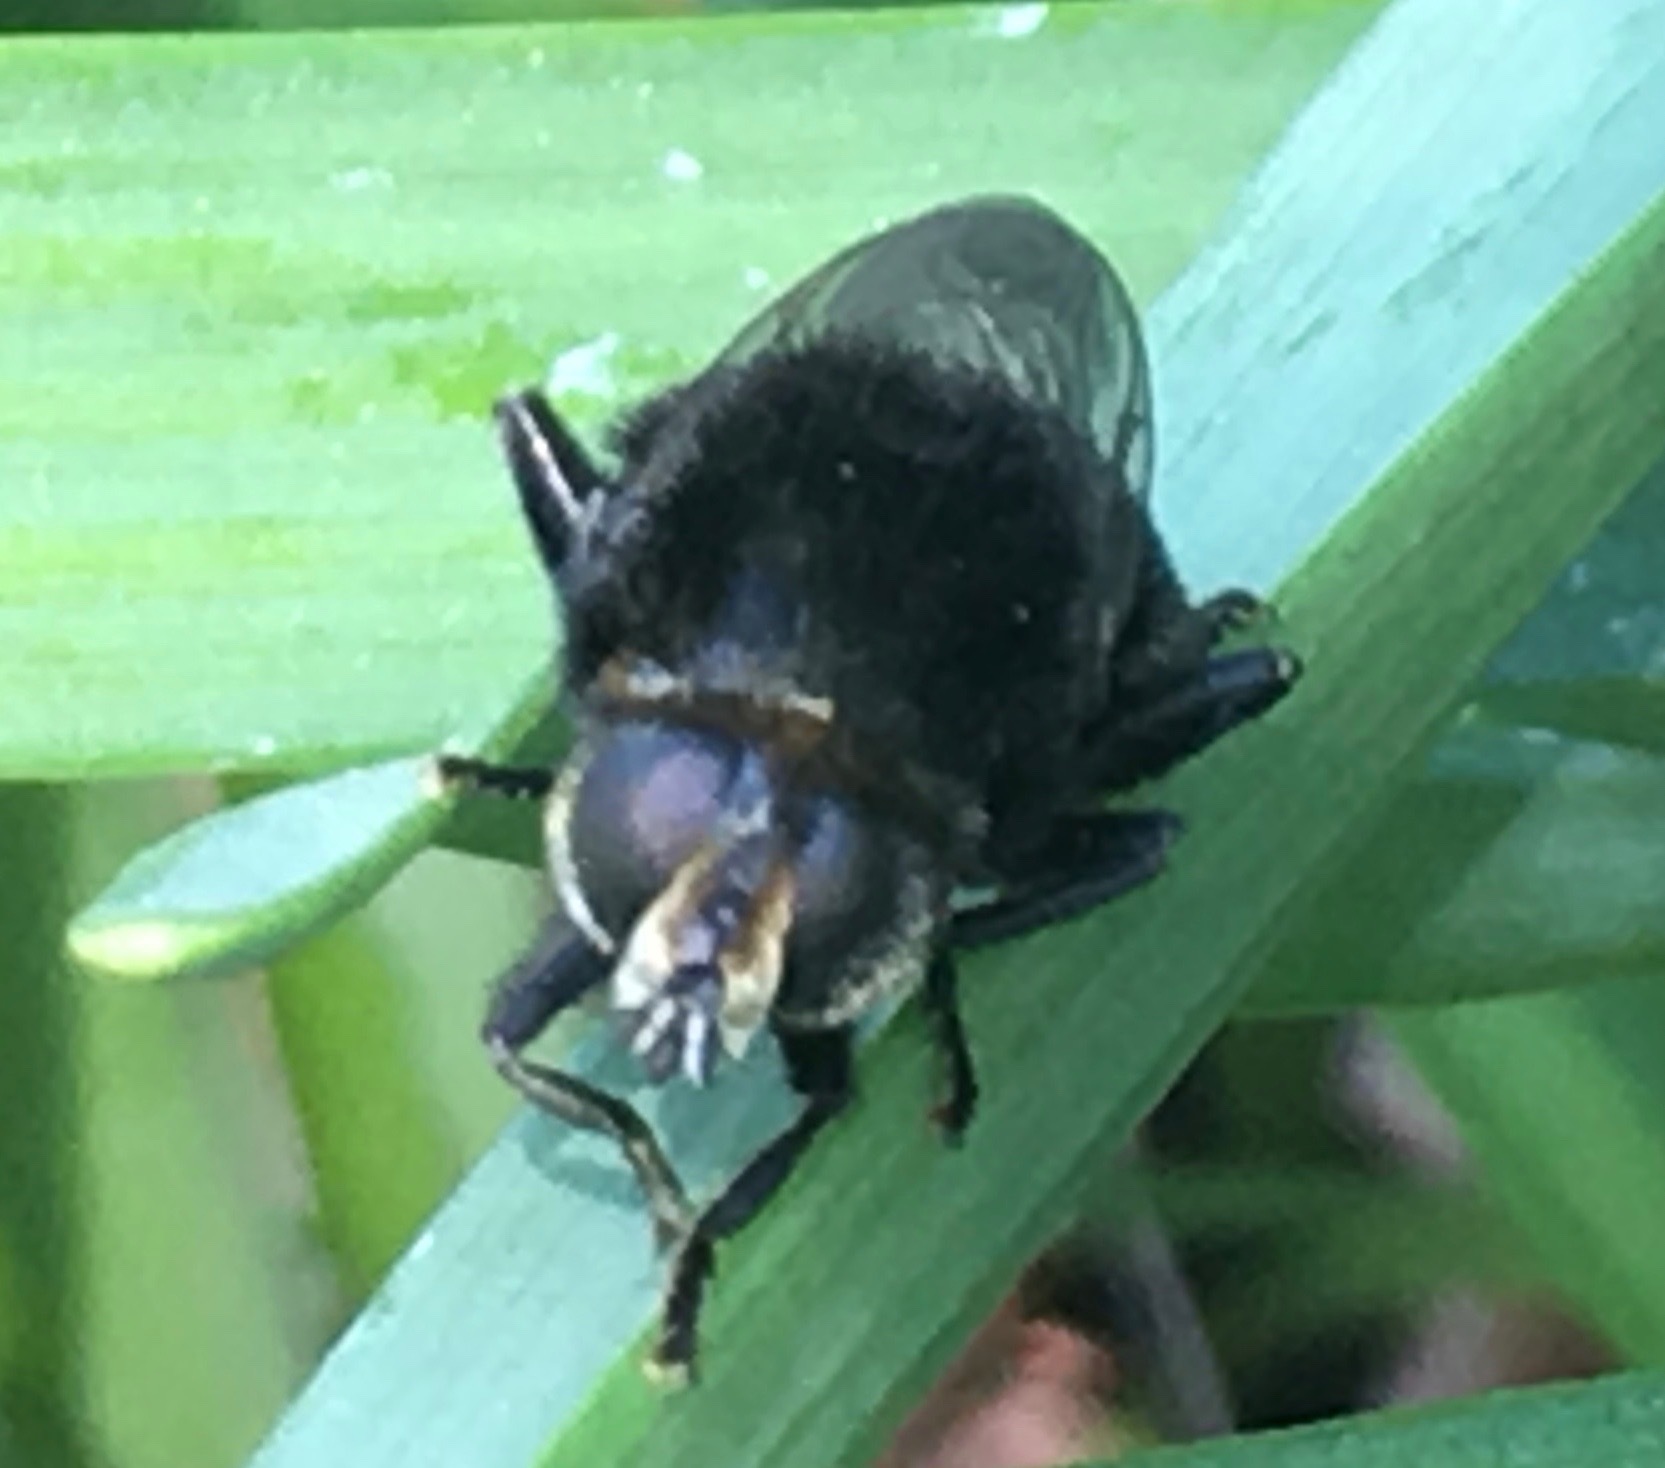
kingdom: Animalia
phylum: Arthropoda
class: Insecta
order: Diptera
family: Syrphidae
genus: Merodon
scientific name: Merodon equestris
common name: Greater bulb-fly
